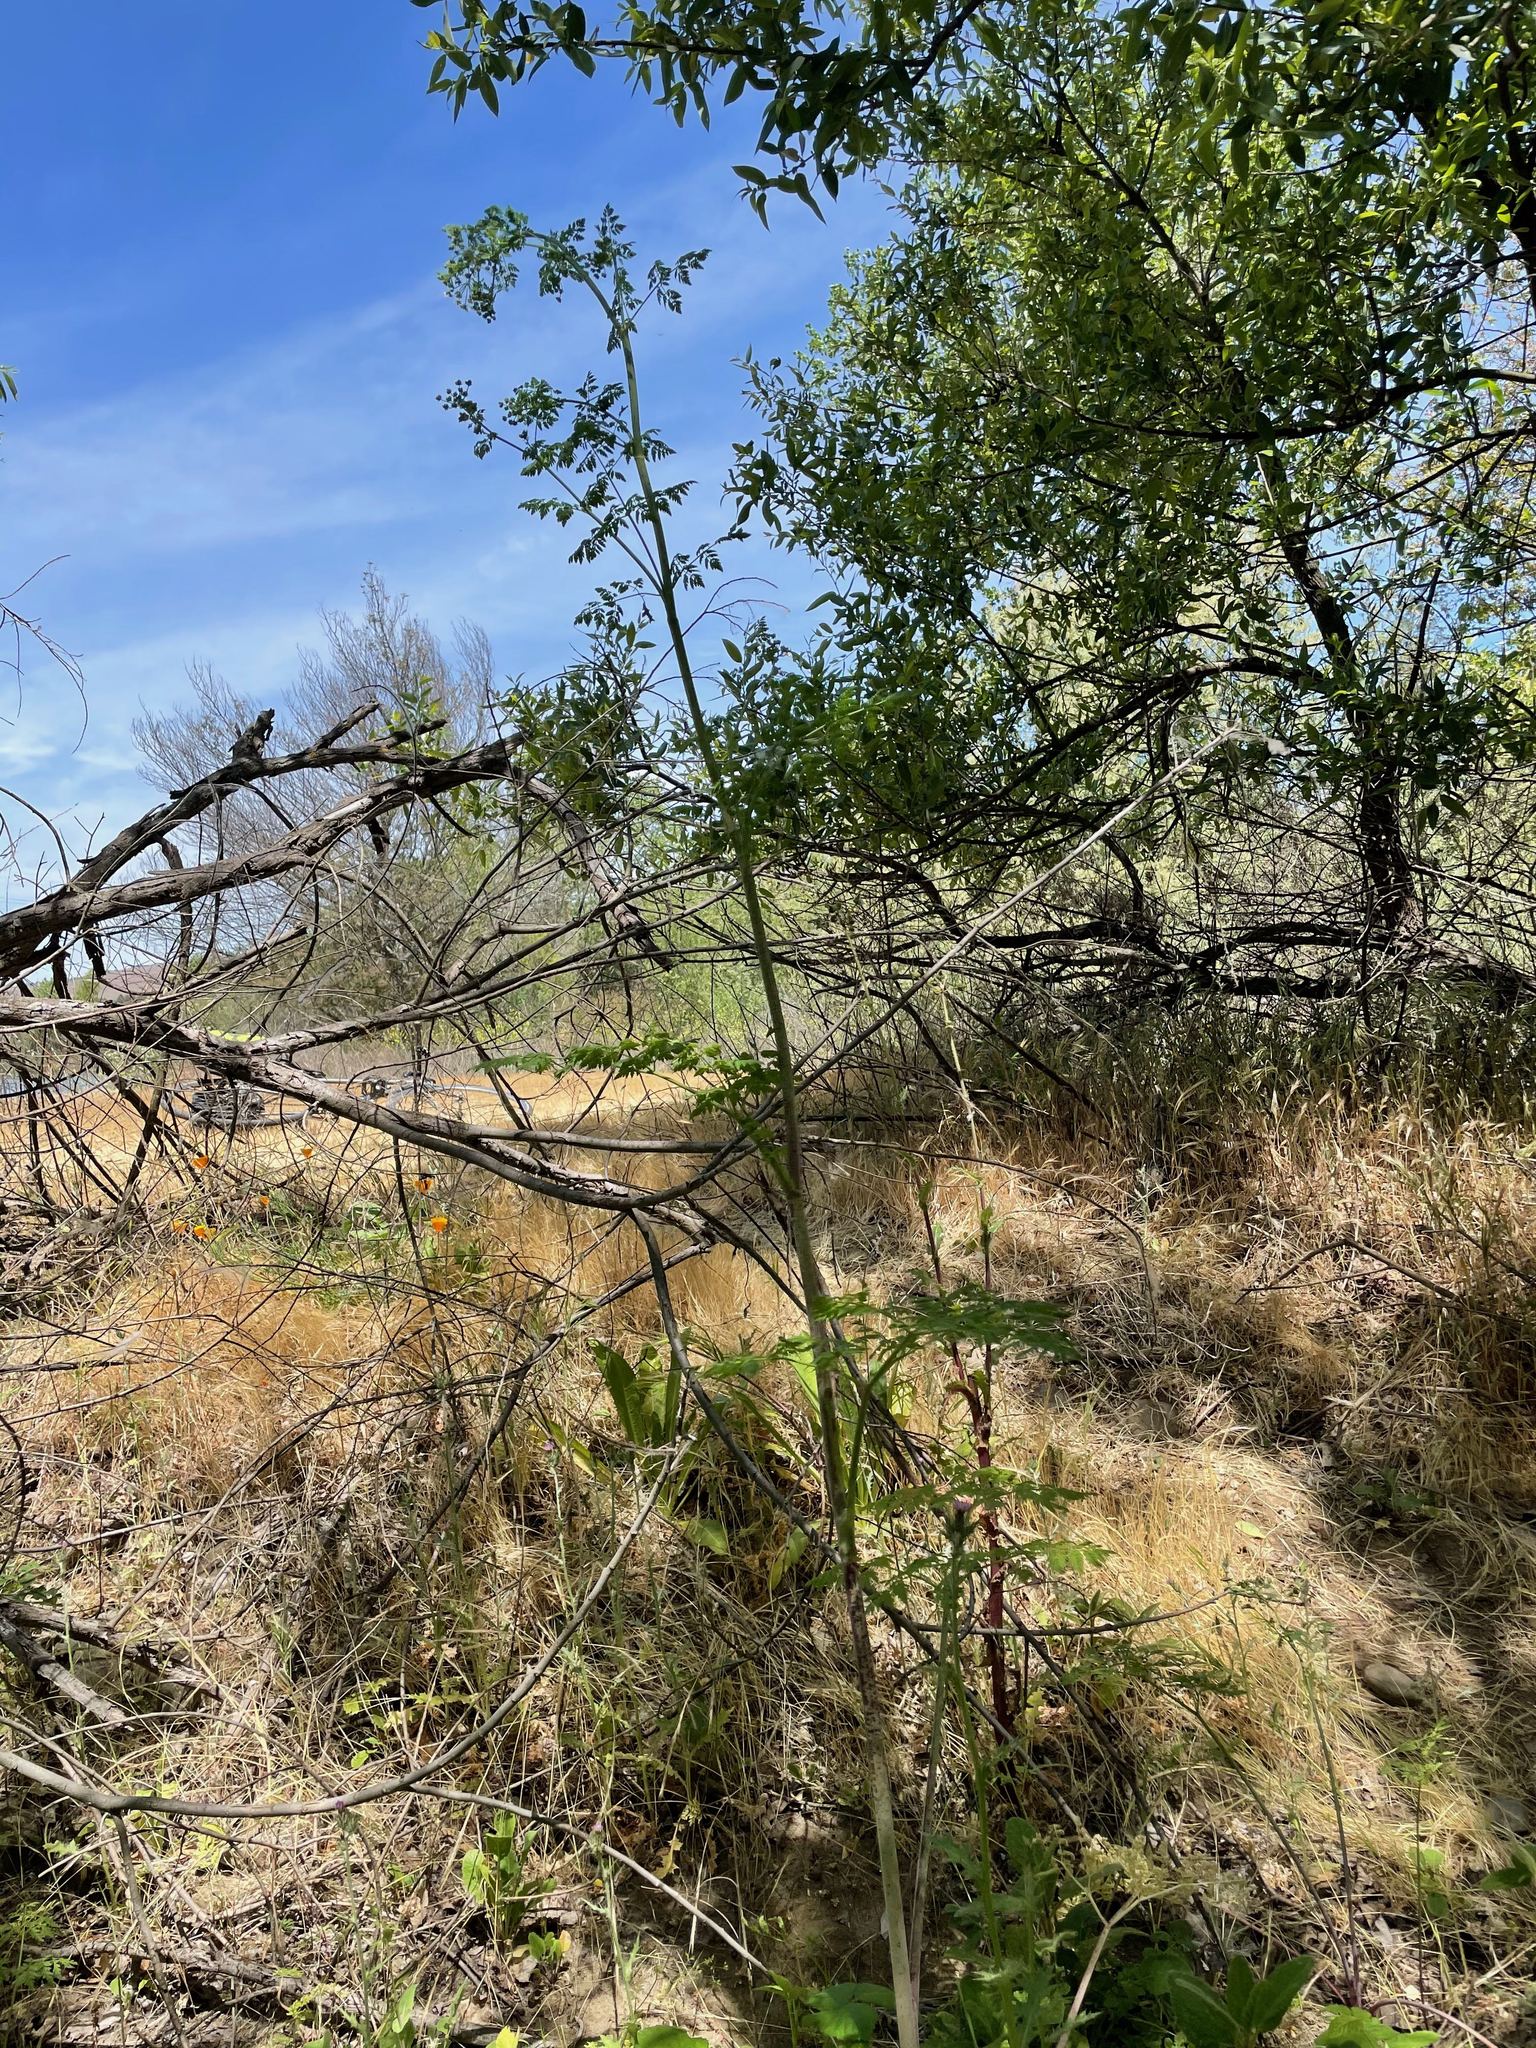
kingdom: Plantae
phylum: Tracheophyta
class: Magnoliopsida
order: Apiales
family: Apiaceae
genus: Conium
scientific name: Conium maculatum
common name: Hemlock
